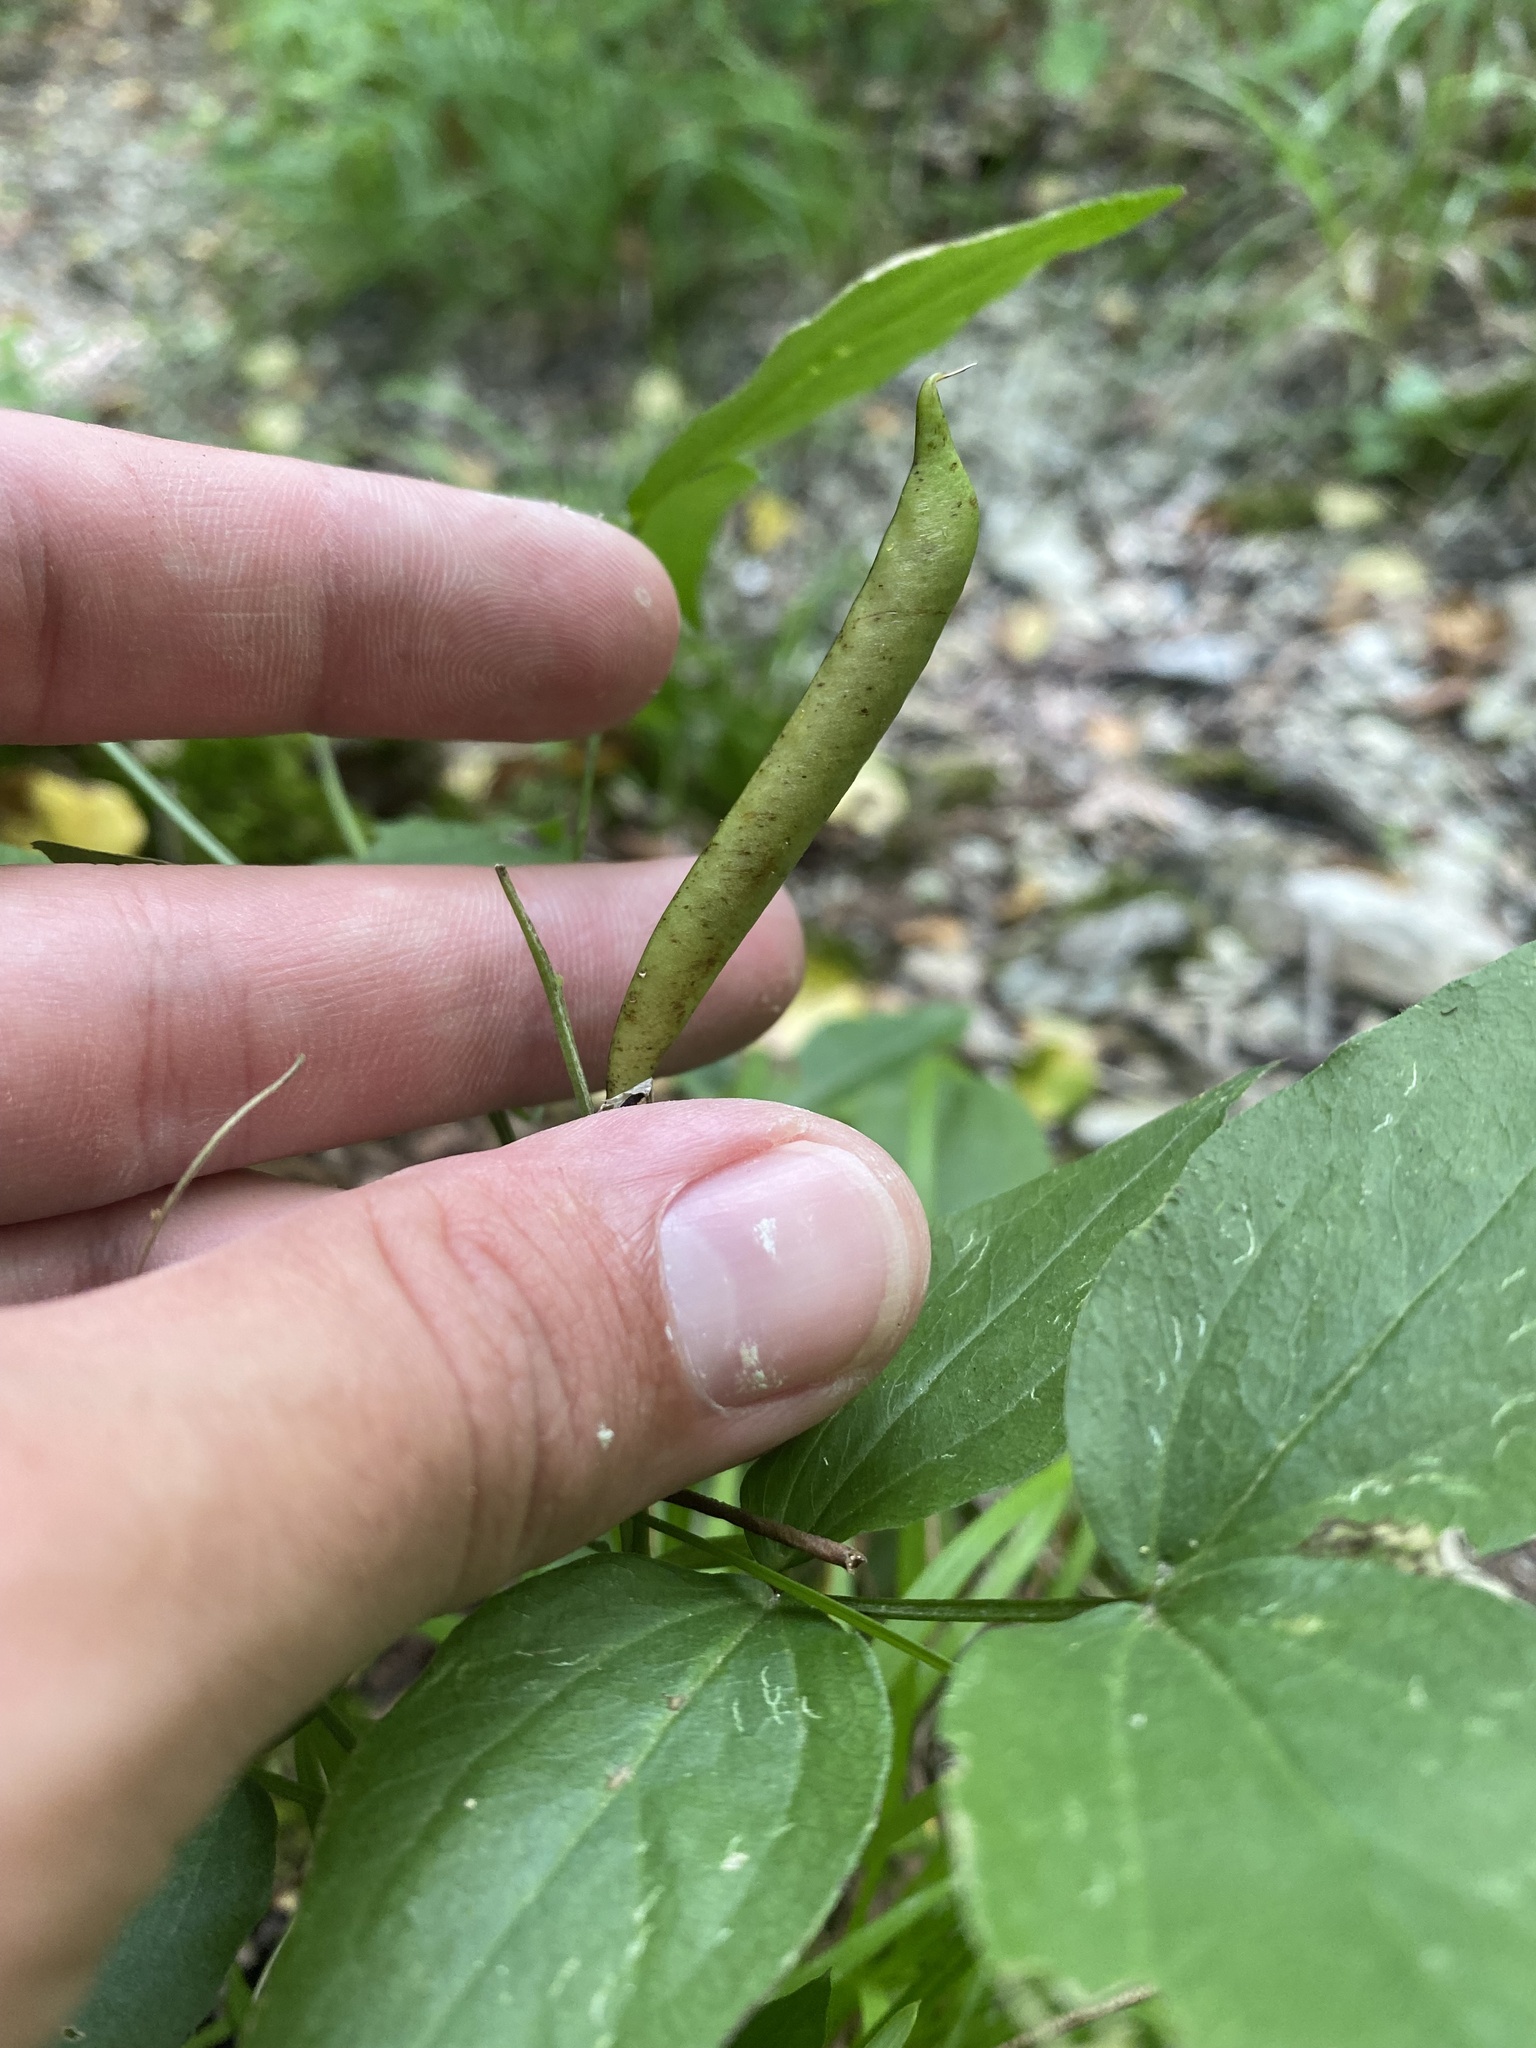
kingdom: Plantae
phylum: Tracheophyta
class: Magnoliopsida
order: Fabales
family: Fabaceae
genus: Lathyrus
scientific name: Lathyrus vernus
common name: Spring pea
